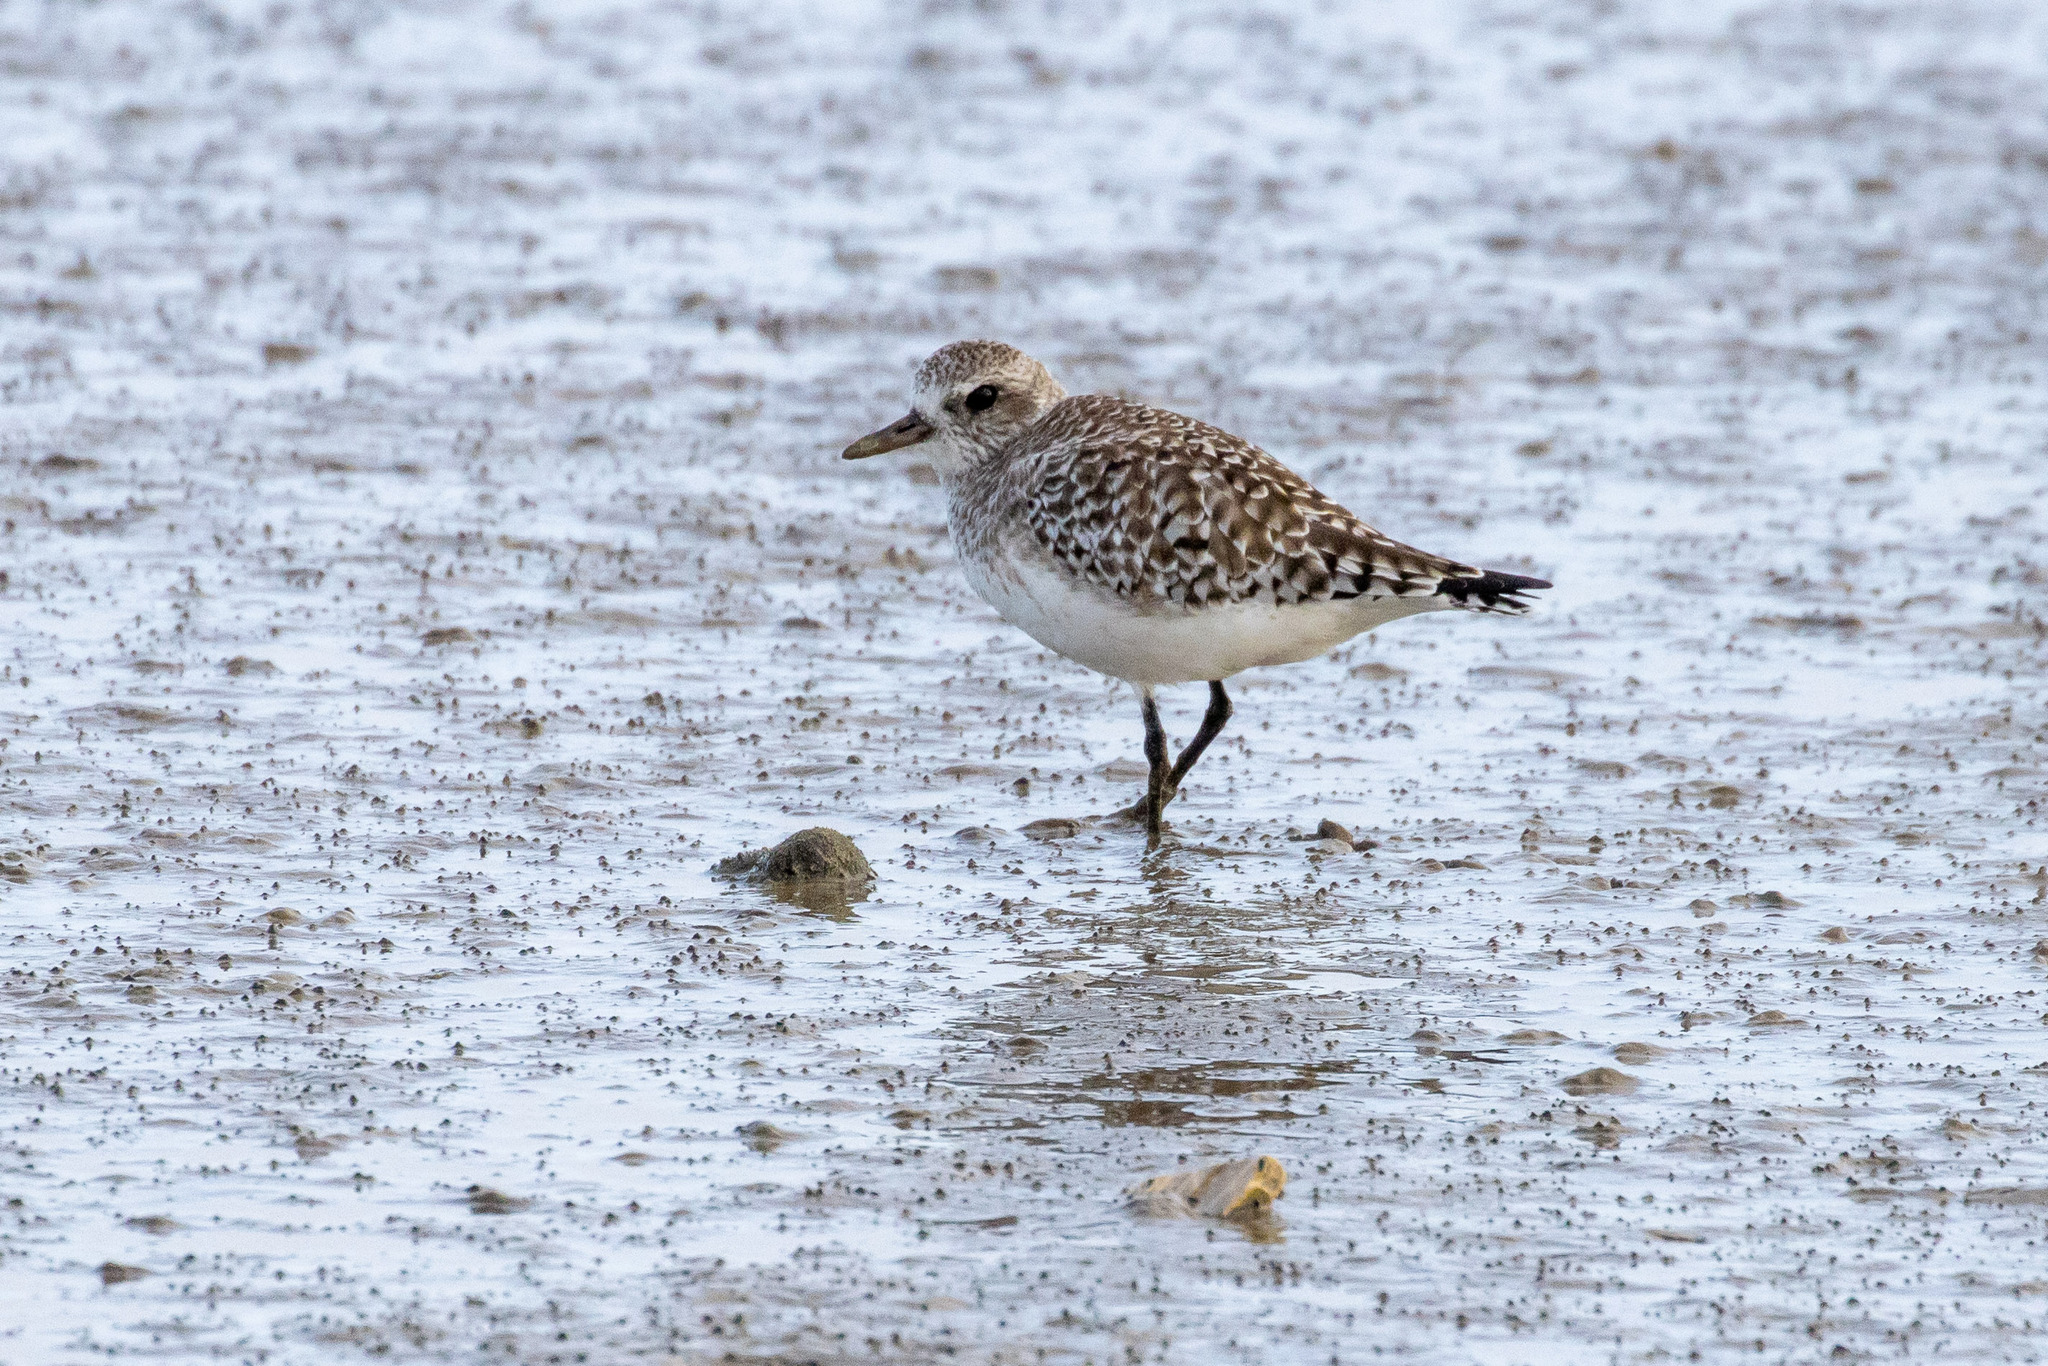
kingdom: Animalia
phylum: Chordata
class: Aves
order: Charadriiformes
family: Charadriidae
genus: Pluvialis
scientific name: Pluvialis squatarola
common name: Grey plover
